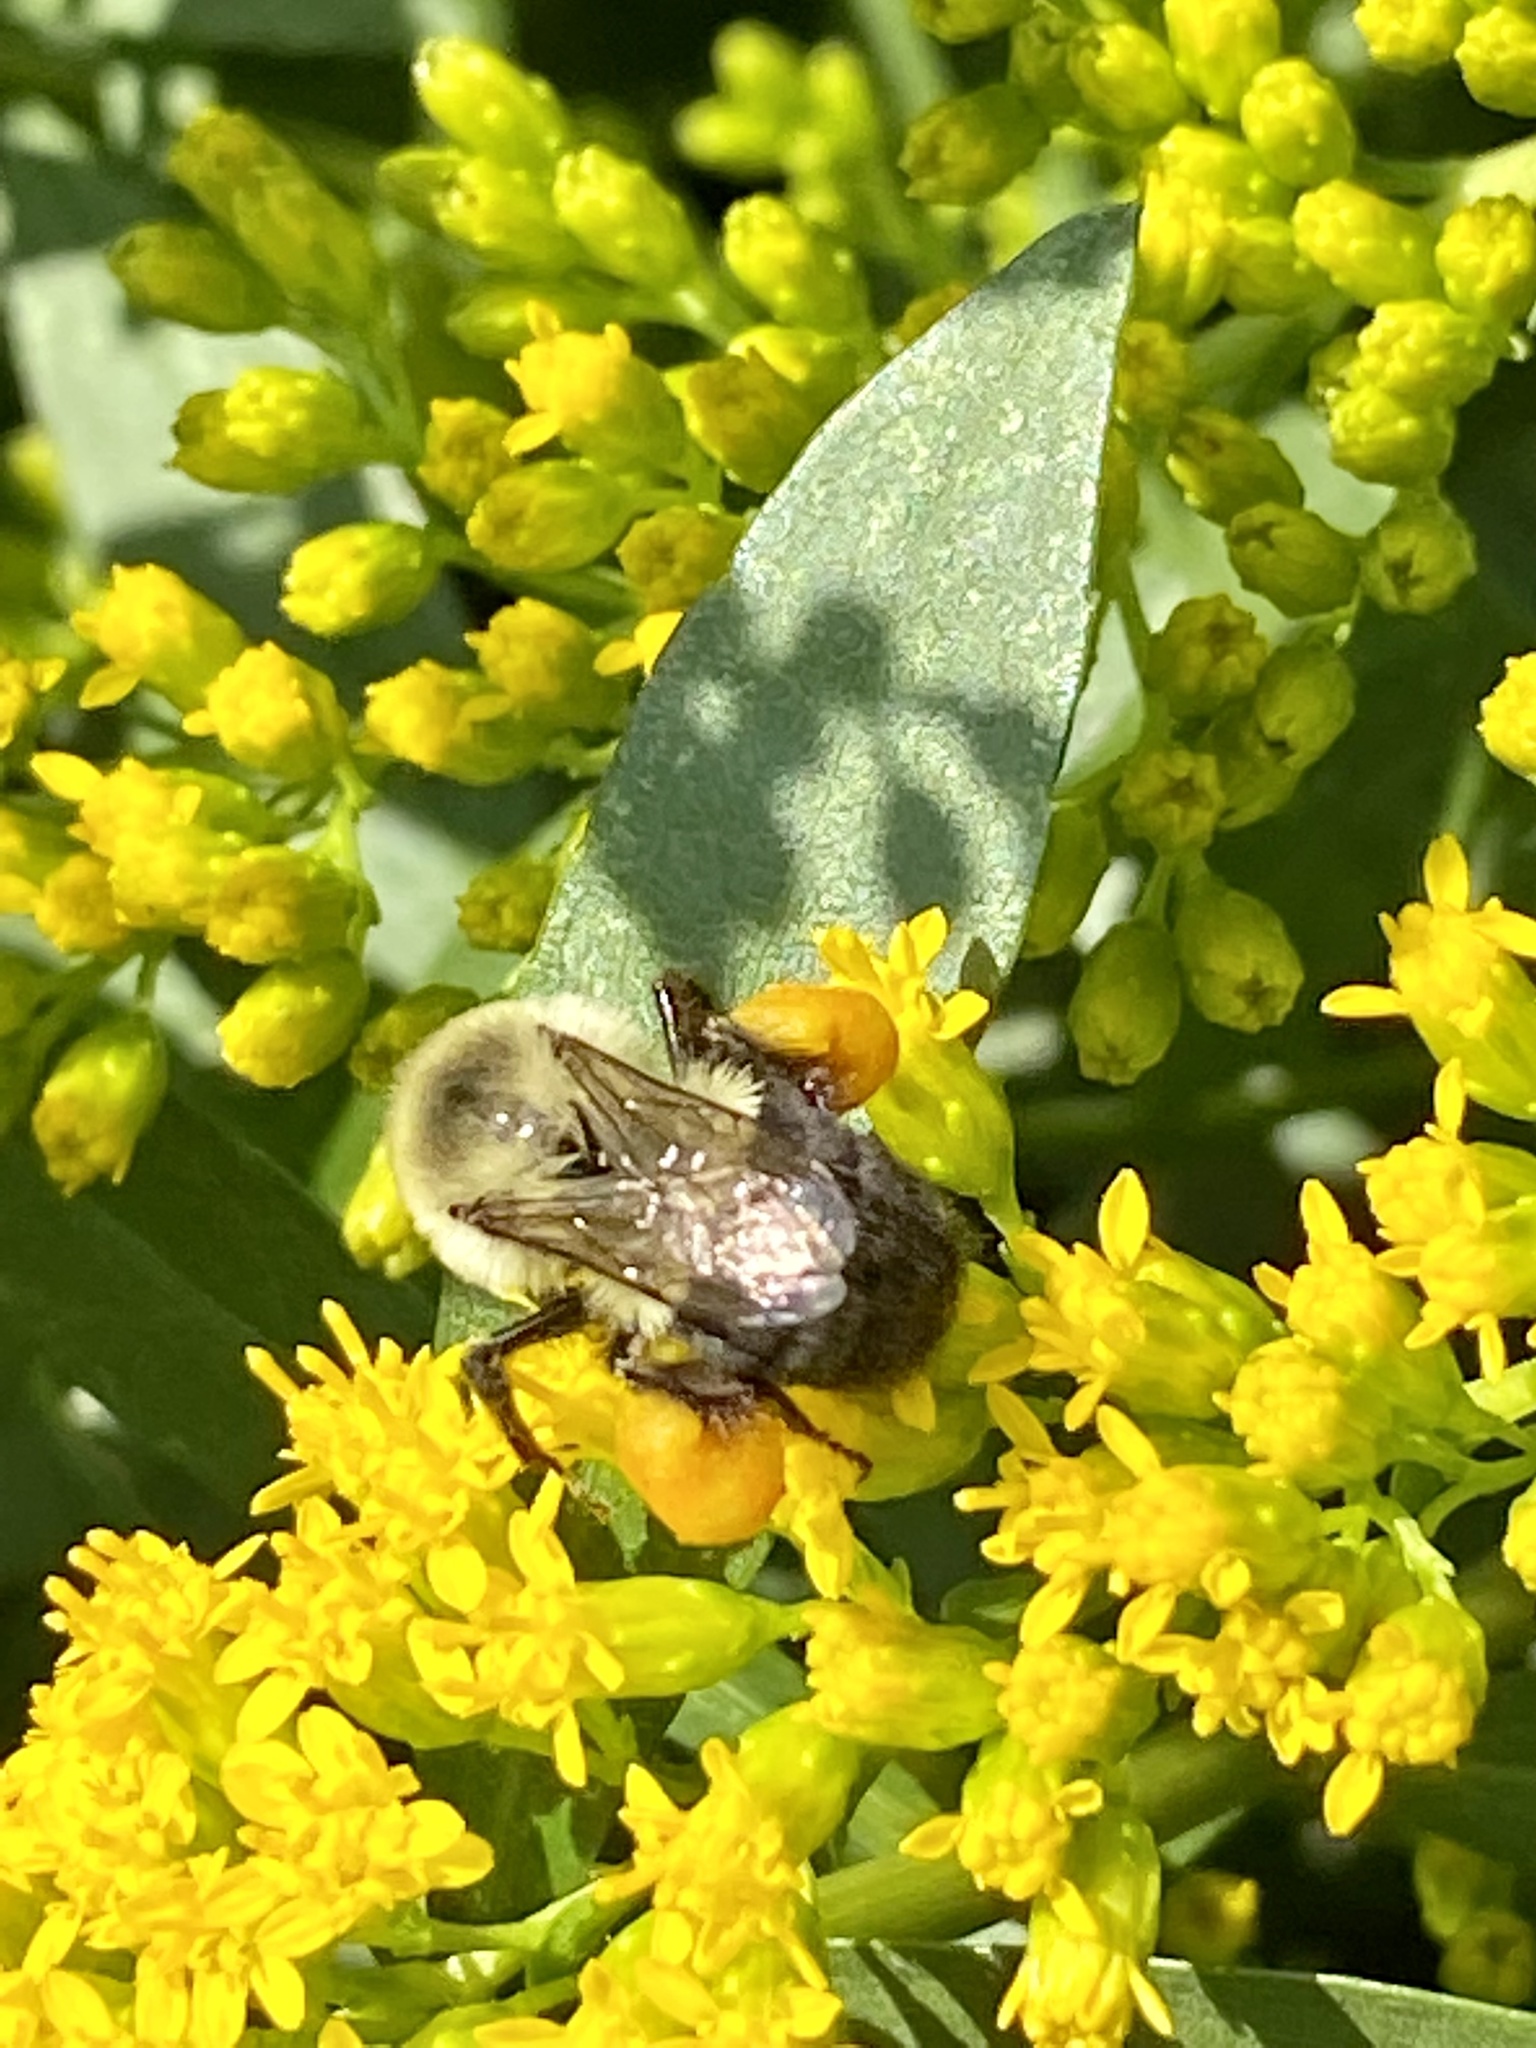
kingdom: Animalia
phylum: Arthropoda
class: Insecta
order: Hymenoptera
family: Apidae
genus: Bombus
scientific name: Bombus impatiens
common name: Common eastern bumble bee
